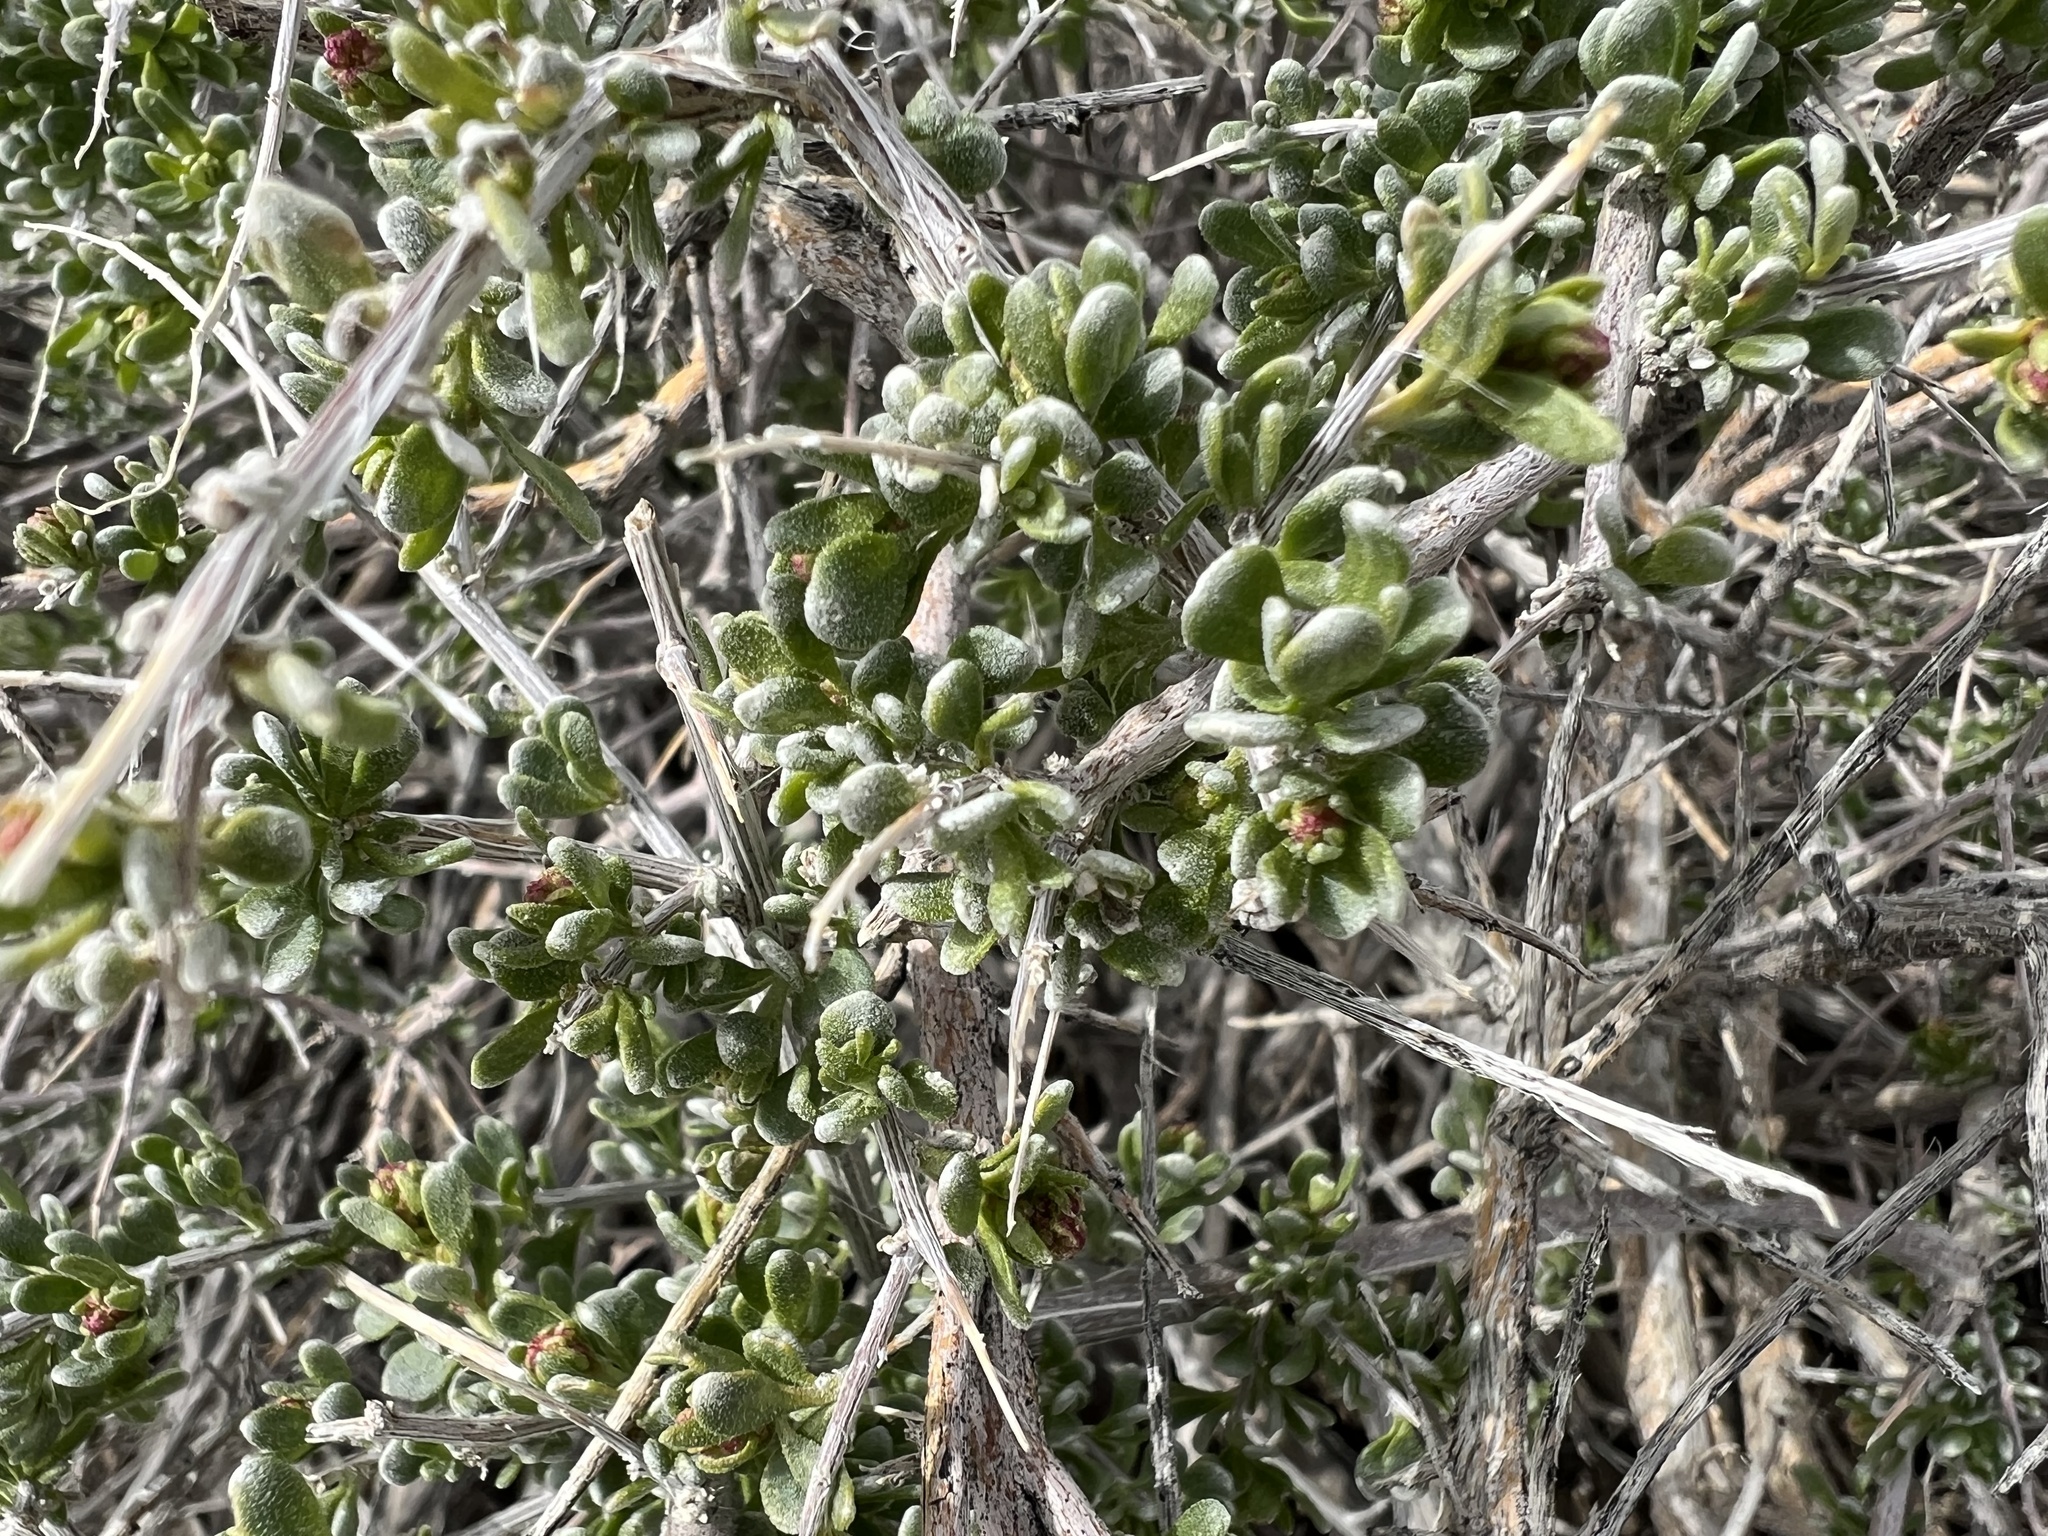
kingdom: Plantae
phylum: Tracheophyta
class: Magnoliopsida
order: Caryophyllales
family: Amaranthaceae
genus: Grayia
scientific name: Grayia spinosa
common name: Spiny hopsage
